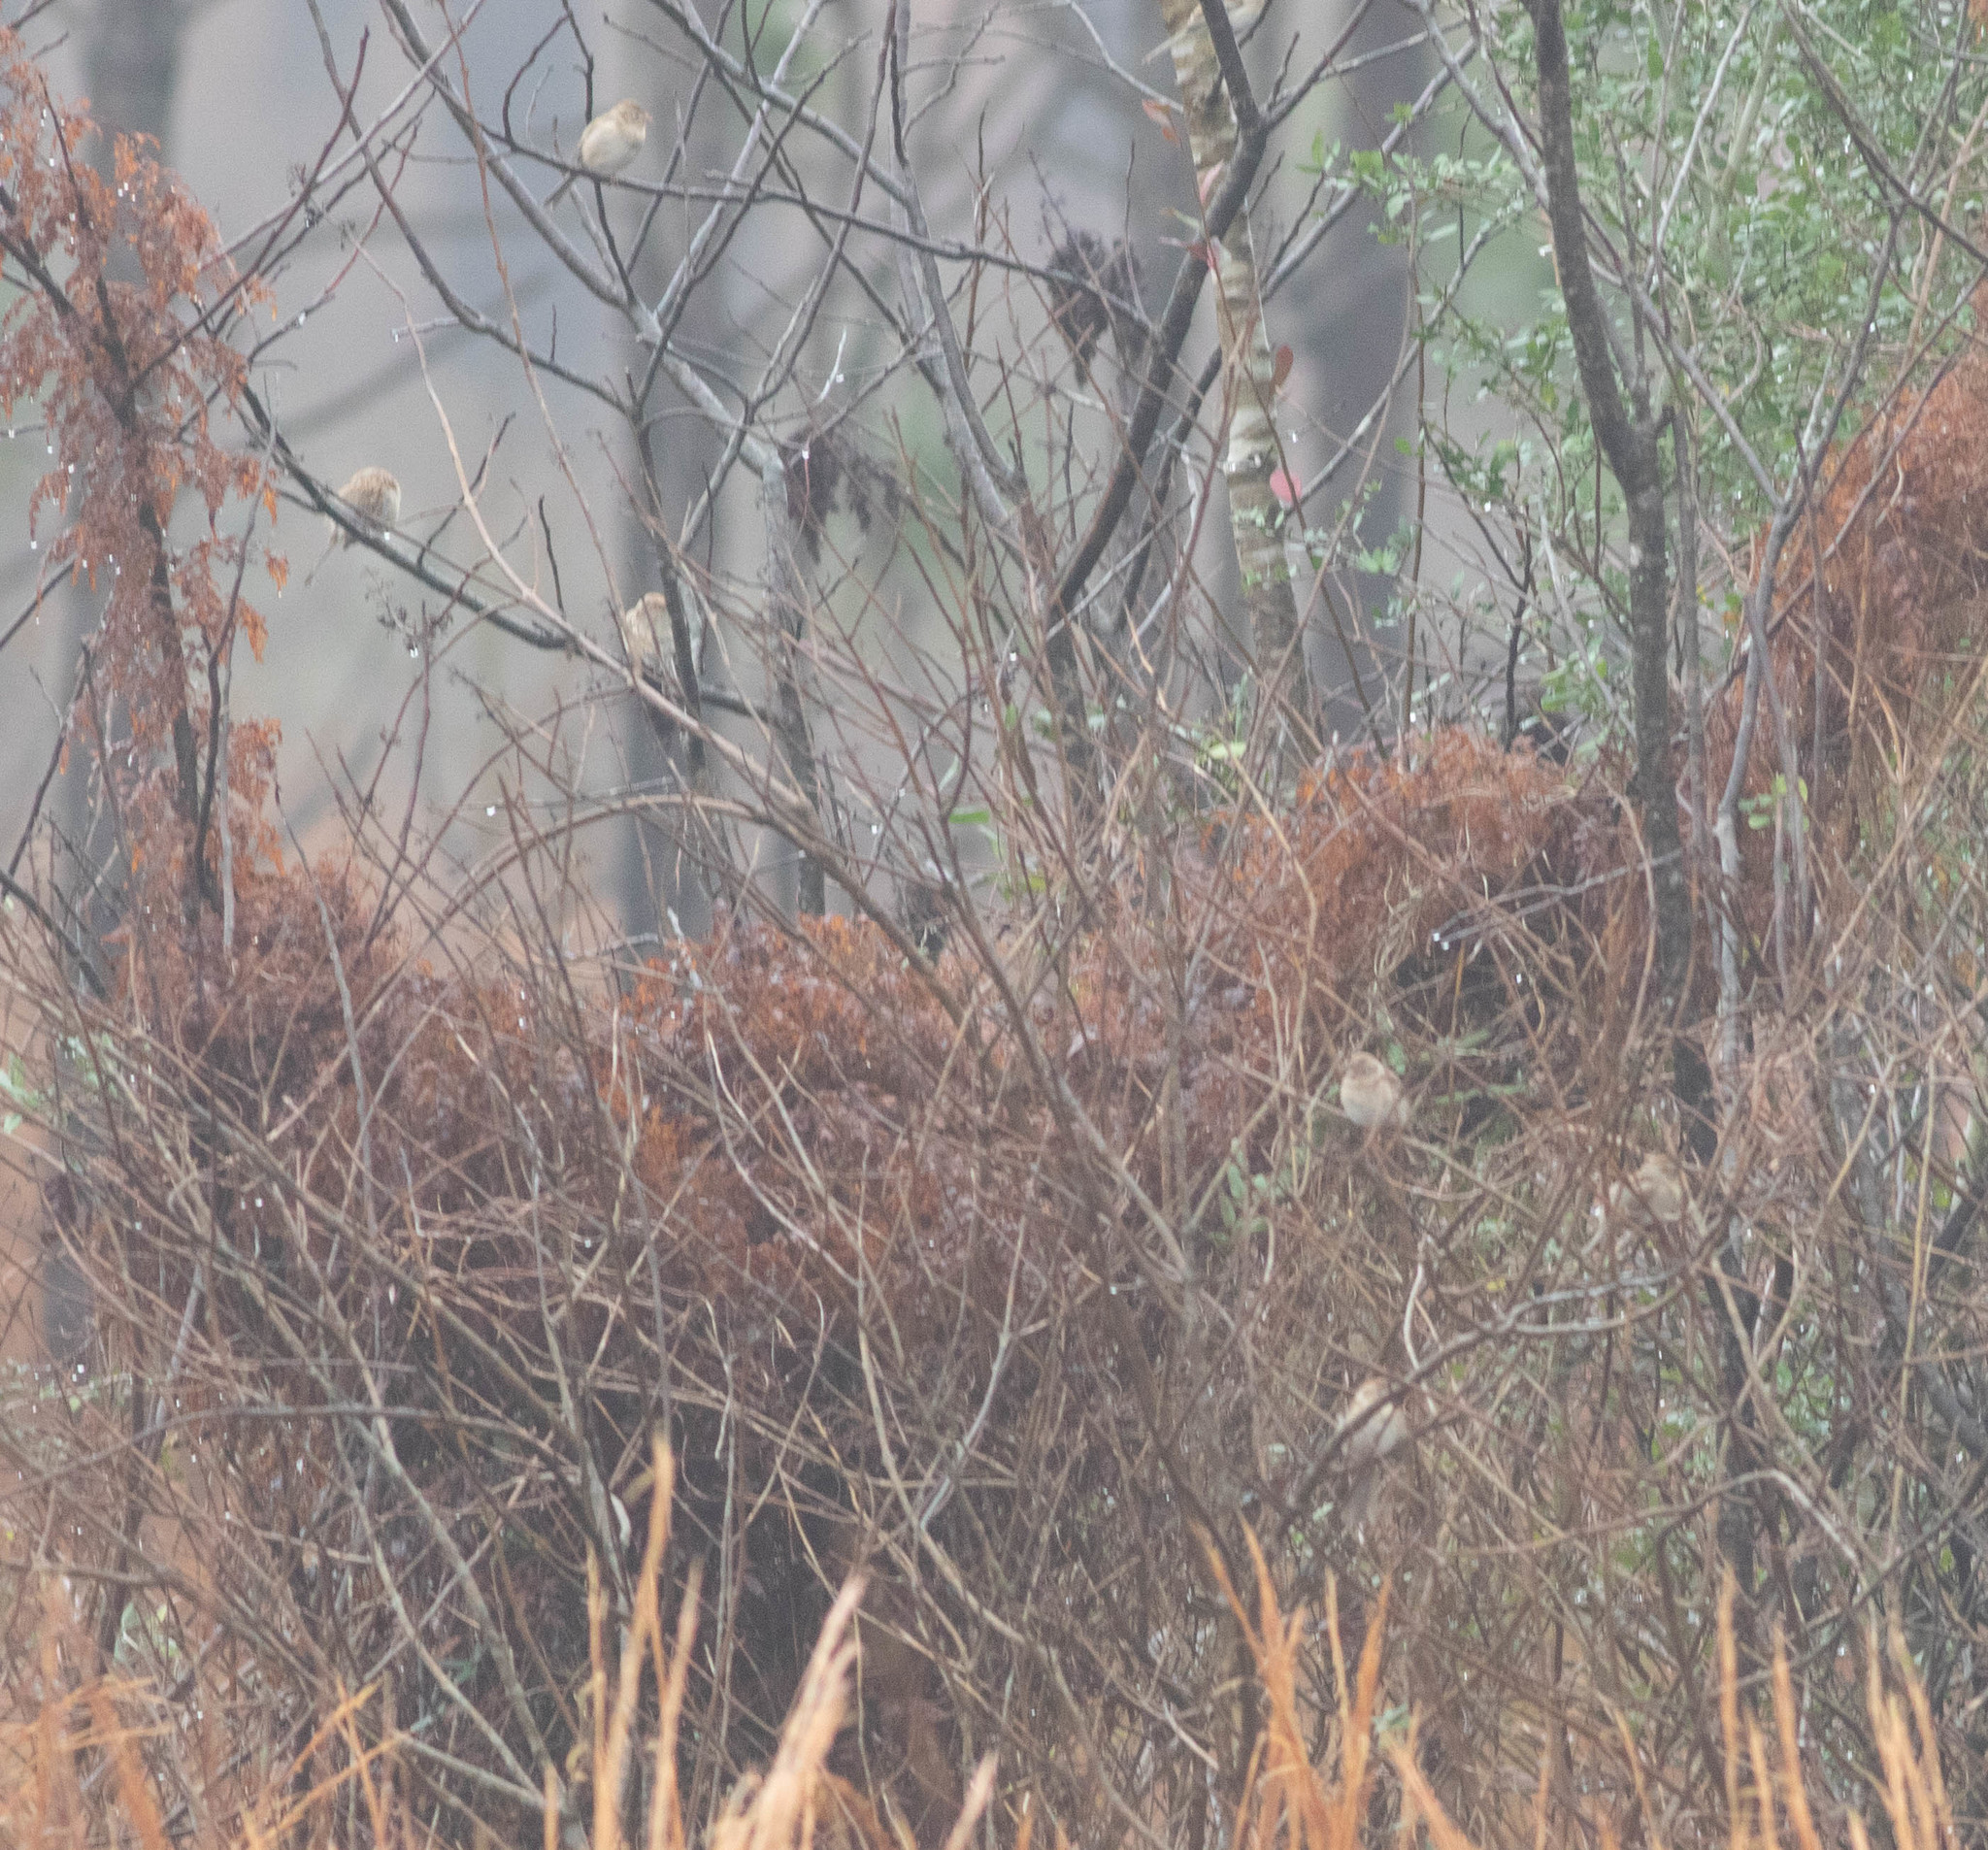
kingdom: Animalia
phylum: Chordata
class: Aves
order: Passeriformes
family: Passerellidae
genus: Spizella
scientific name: Spizella pusilla
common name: Field sparrow
